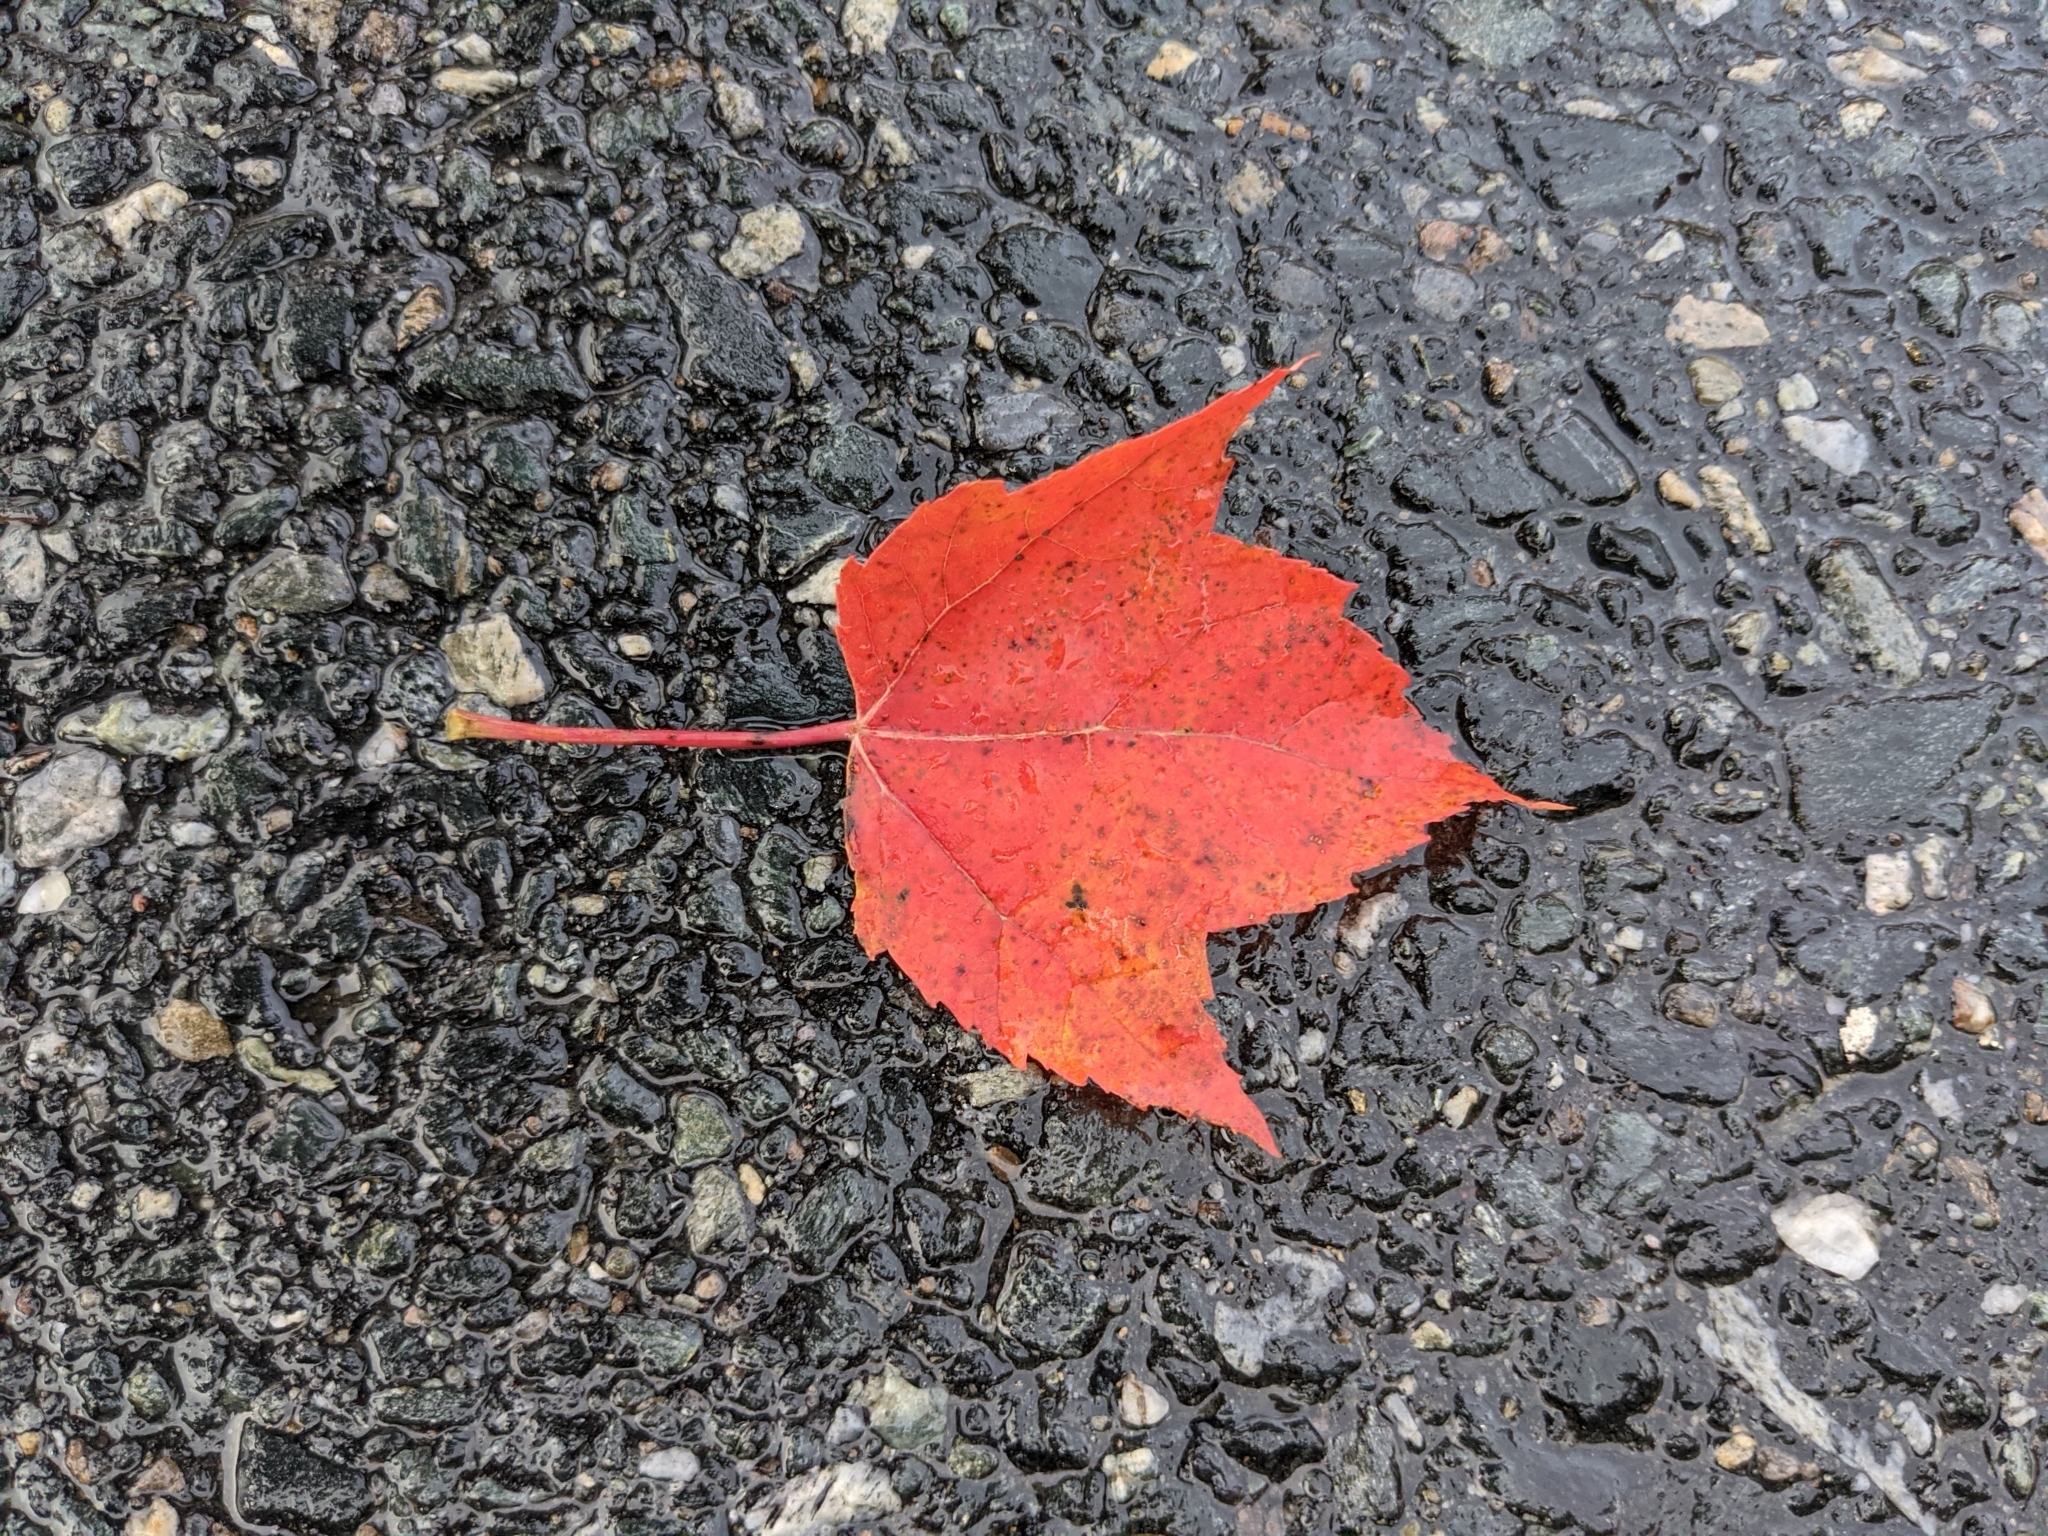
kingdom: Plantae
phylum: Tracheophyta
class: Magnoliopsida
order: Sapindales
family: Sapindaceae
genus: Acer
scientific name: Acer rubrum
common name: Red maple
